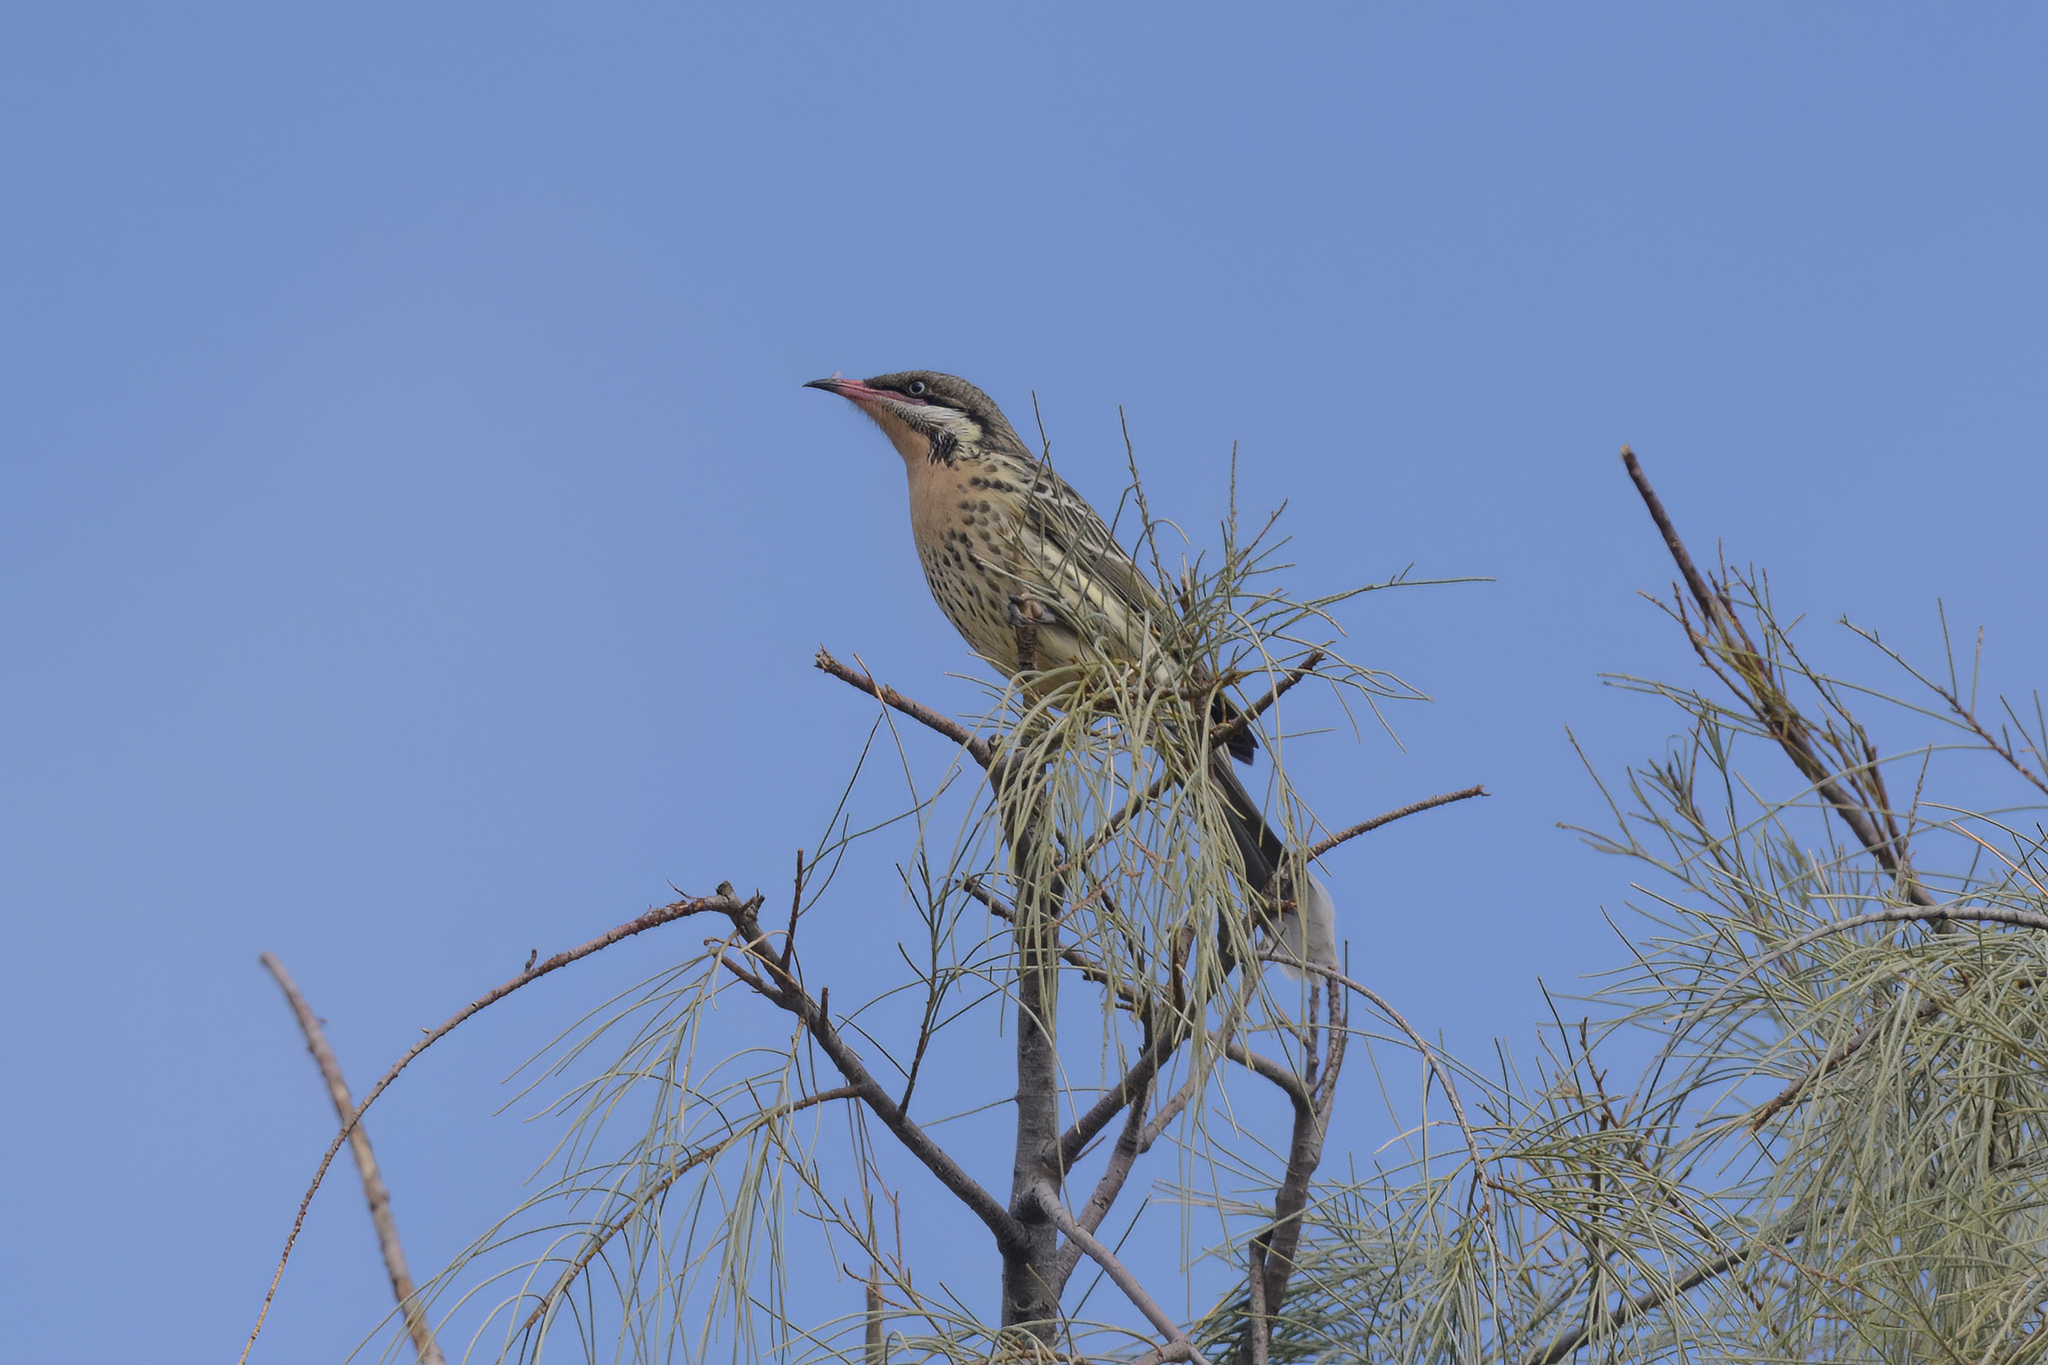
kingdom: Animalia
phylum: Chordata
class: Aves
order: Passeriformes
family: Meliphagidae
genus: Acanthagenys
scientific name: Acanthagenys rufogularis
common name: Spiny-cheeked honeyeater
